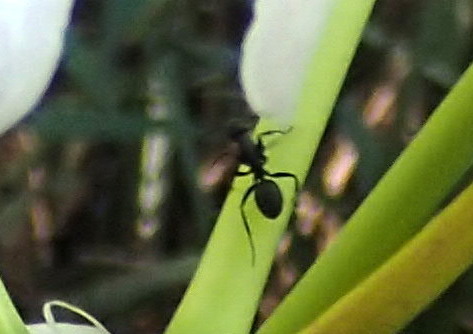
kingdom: Animalia
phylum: Arthropoda
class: Insecta
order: Hymenoptera
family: Formicidae
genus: Camponotus
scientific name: Camponotus pennsylvanicus
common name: Black carpenter ant
